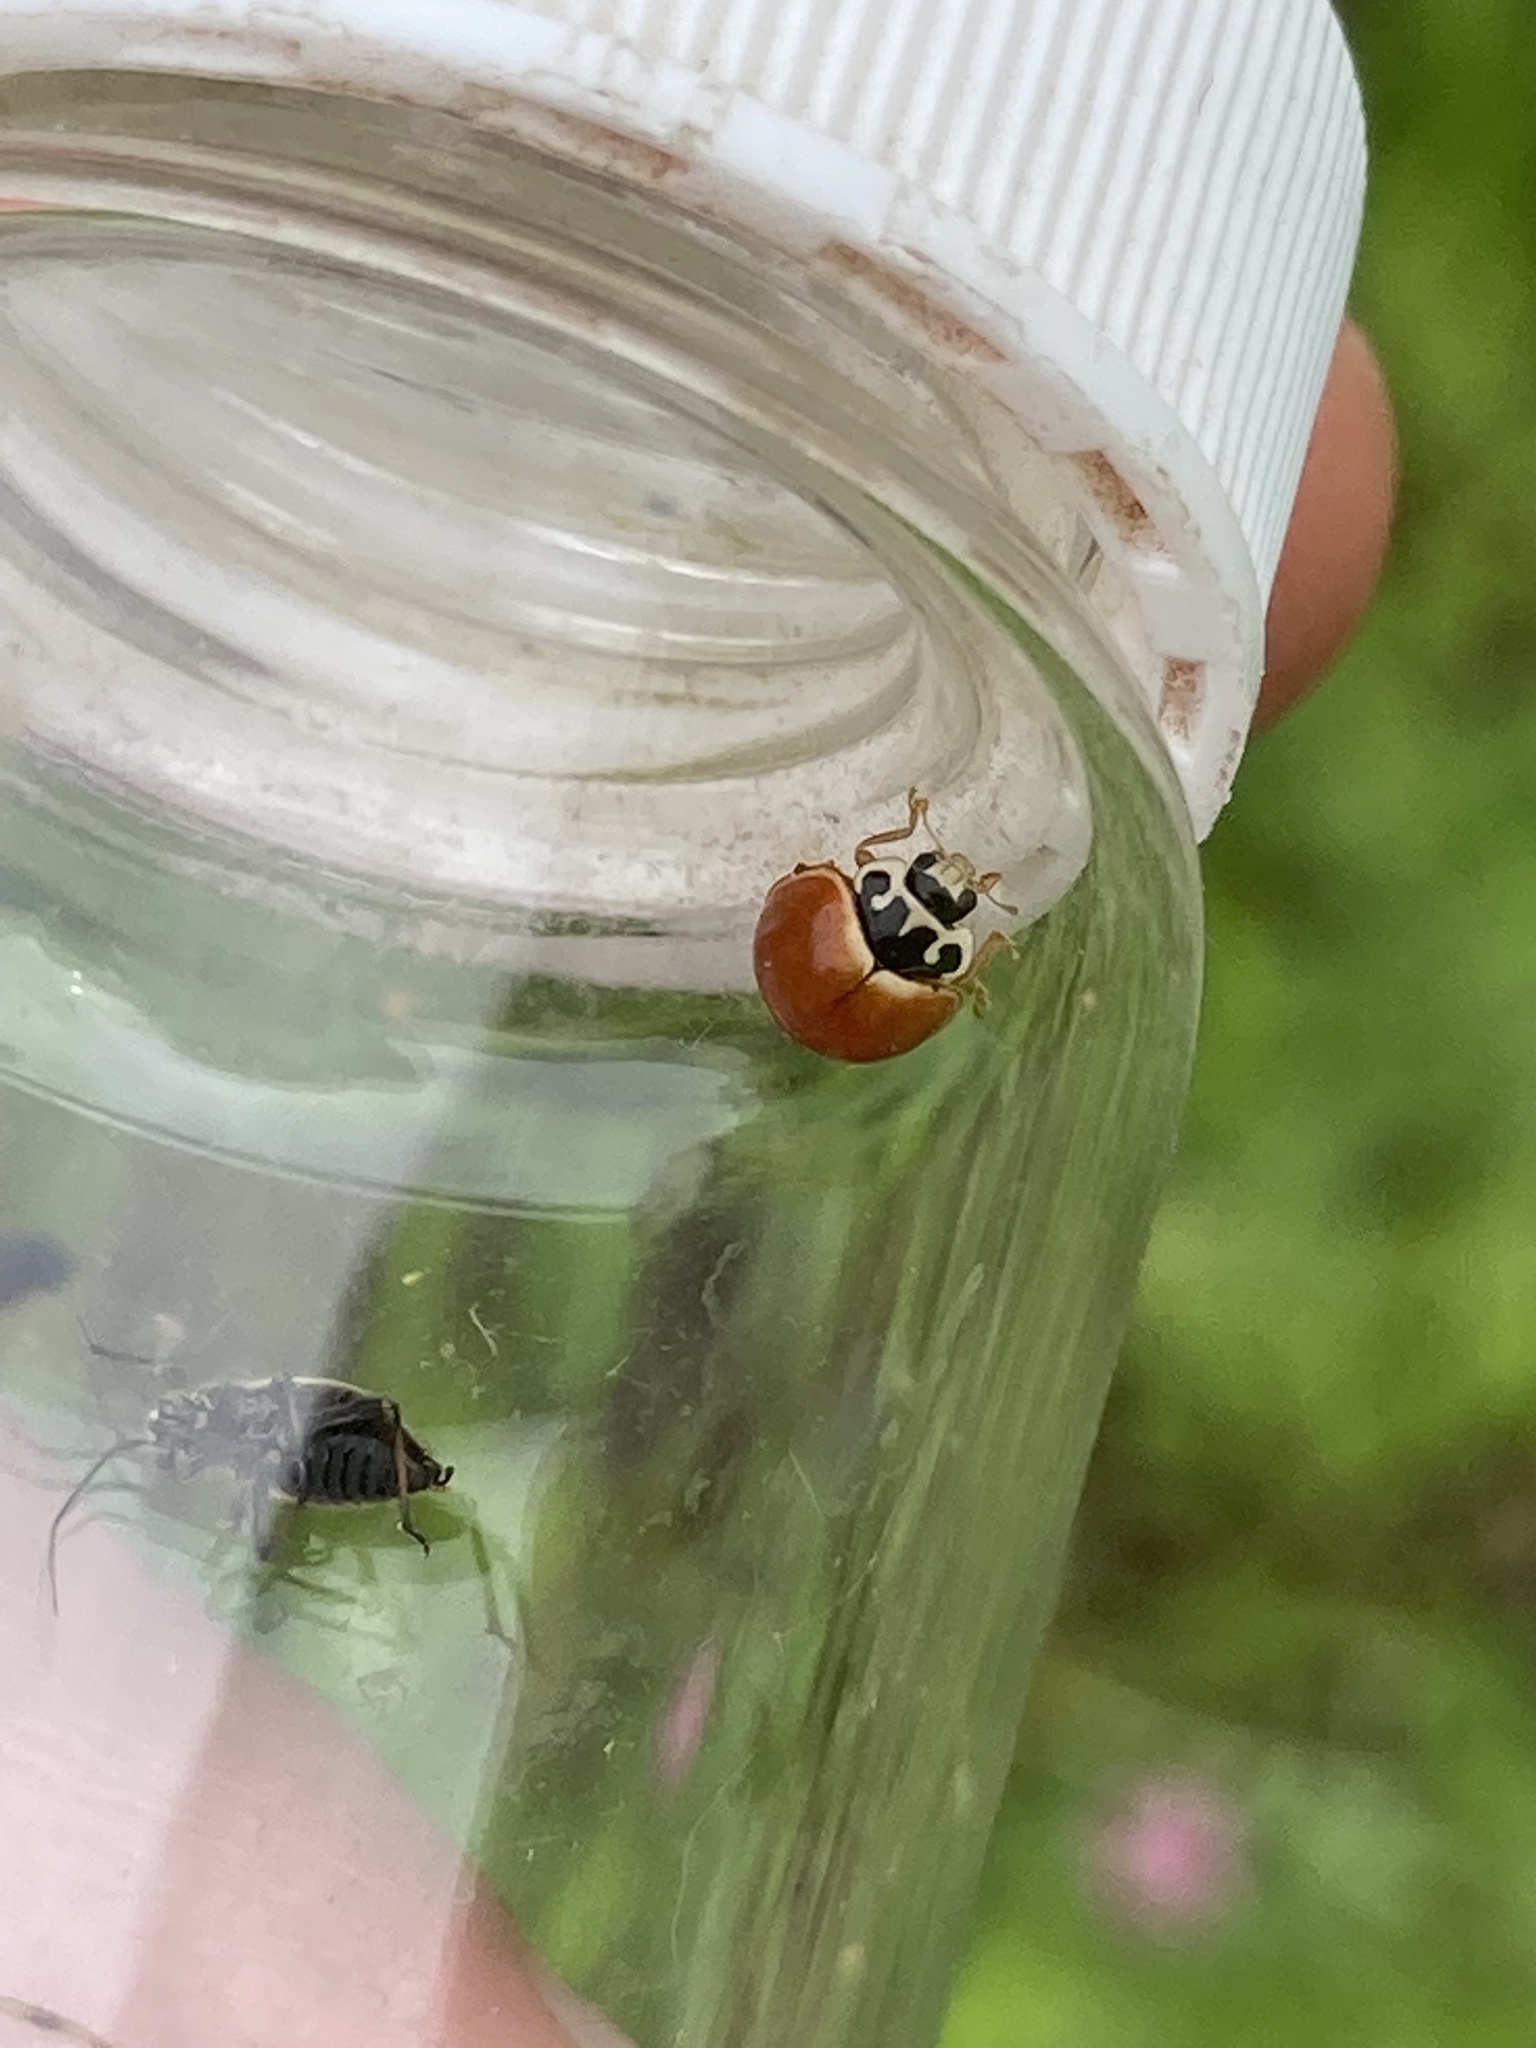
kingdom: Animalia
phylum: Arthropoda
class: Insecta
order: Coleoptera
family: Coccinellidae
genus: Cycloneda
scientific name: Cycloneda munda
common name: Polished lady beetle
